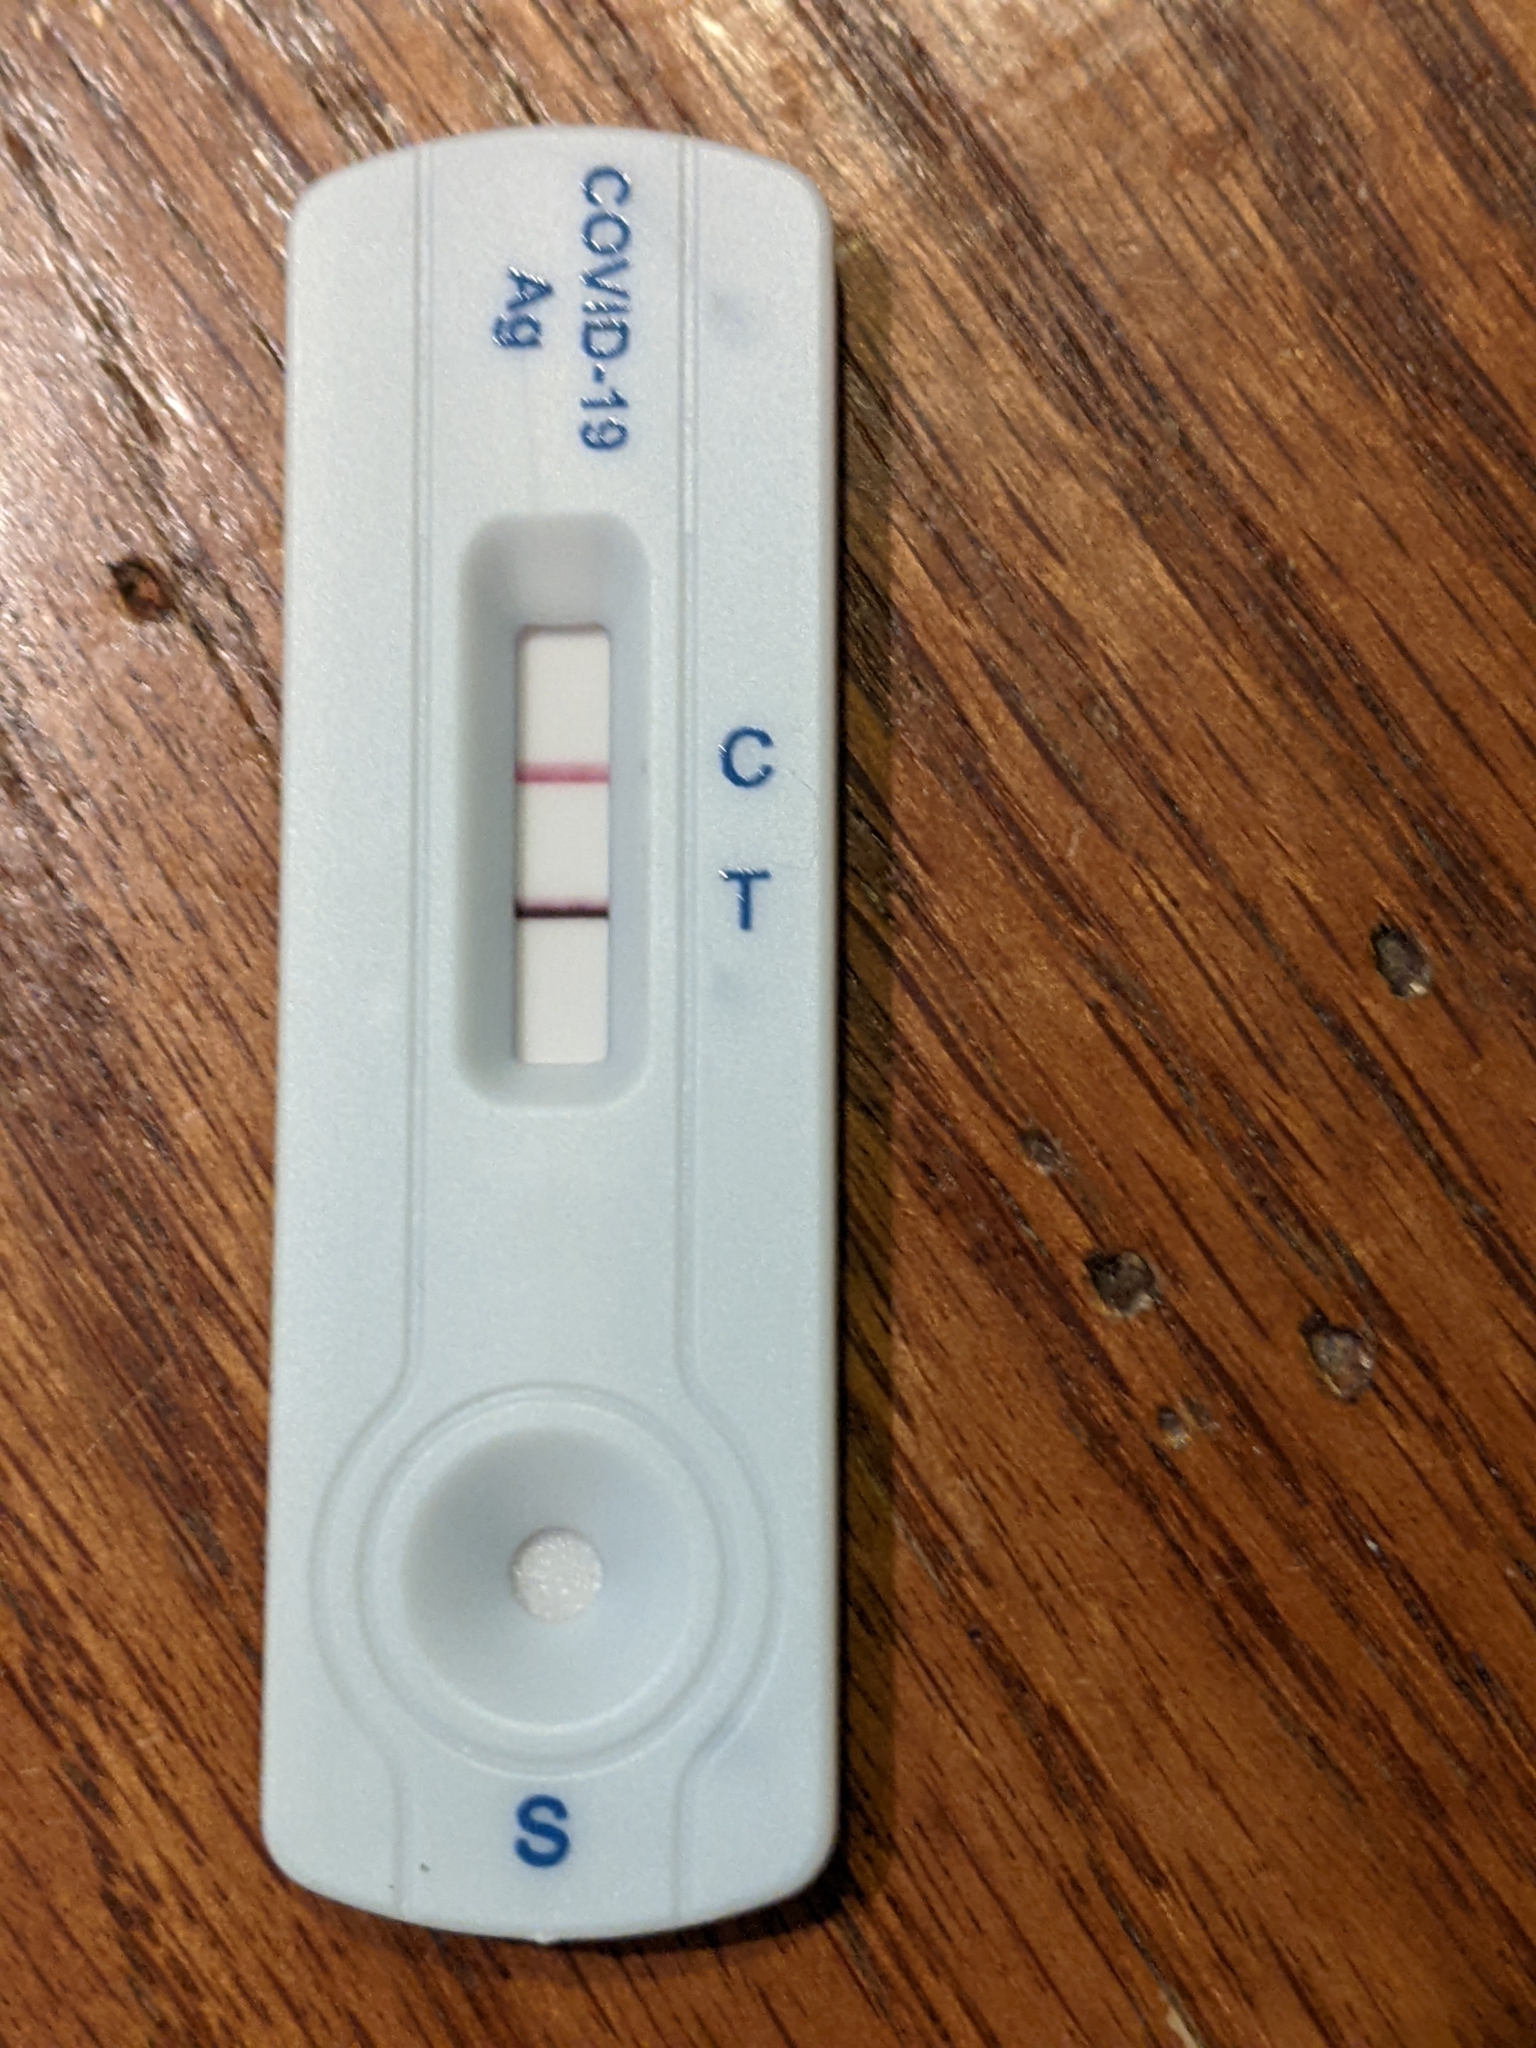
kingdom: Viruses
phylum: Pisuviricota
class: Pisoniviricetes
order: Nidovirales
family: Coronaviridae
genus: Betacoronavirus
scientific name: Betacoronavirus
